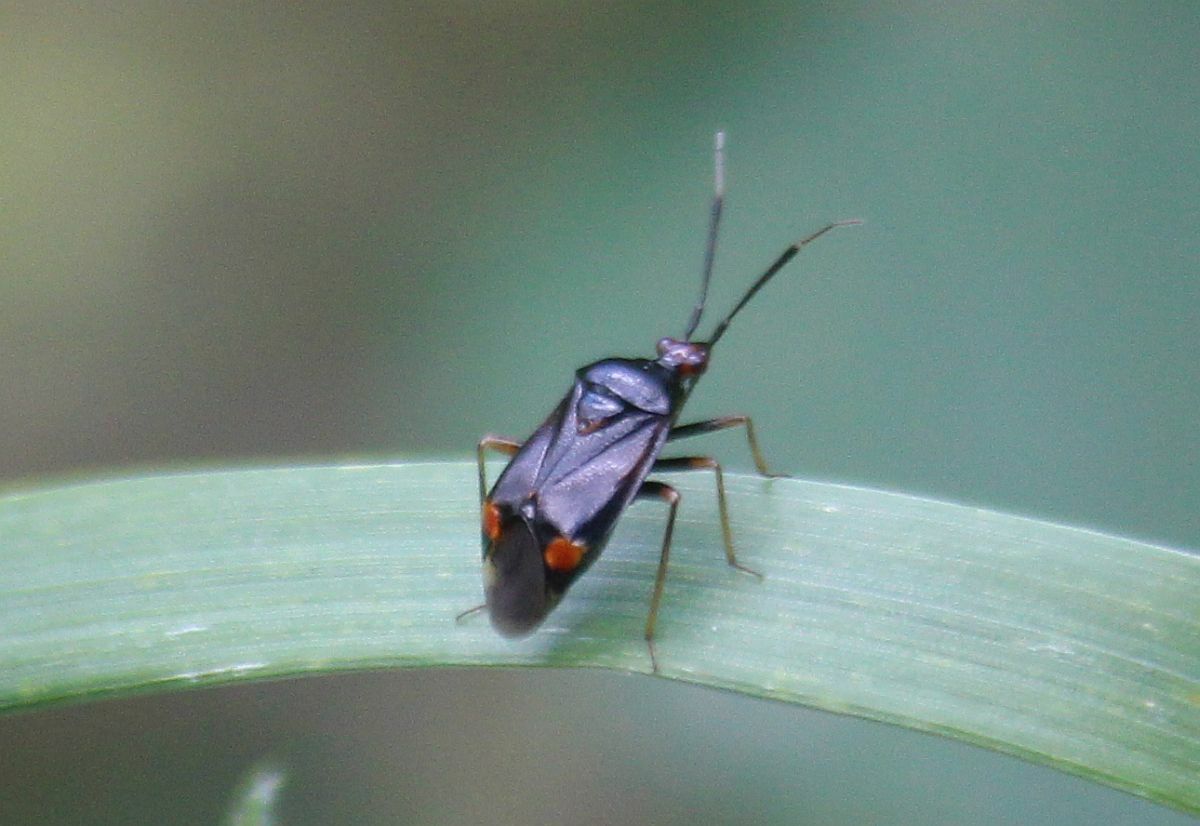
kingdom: Animalia
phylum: Arthropoda
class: Insecta
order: Hemiptera
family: Miridae
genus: Deraeocoris
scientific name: Deraeocoris ruber
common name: Plant bug
